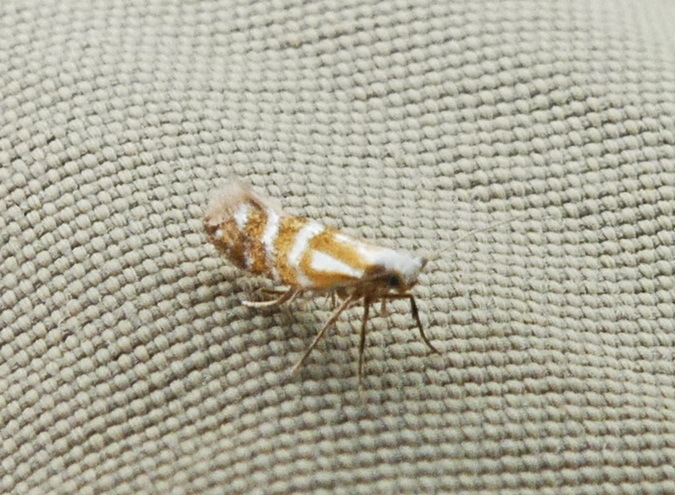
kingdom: Animalia
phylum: Arthropoda
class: Insecta
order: Lepidoptera
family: Argyresthiidae
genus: Argyresthia
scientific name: Argyresthia aureoargentella
